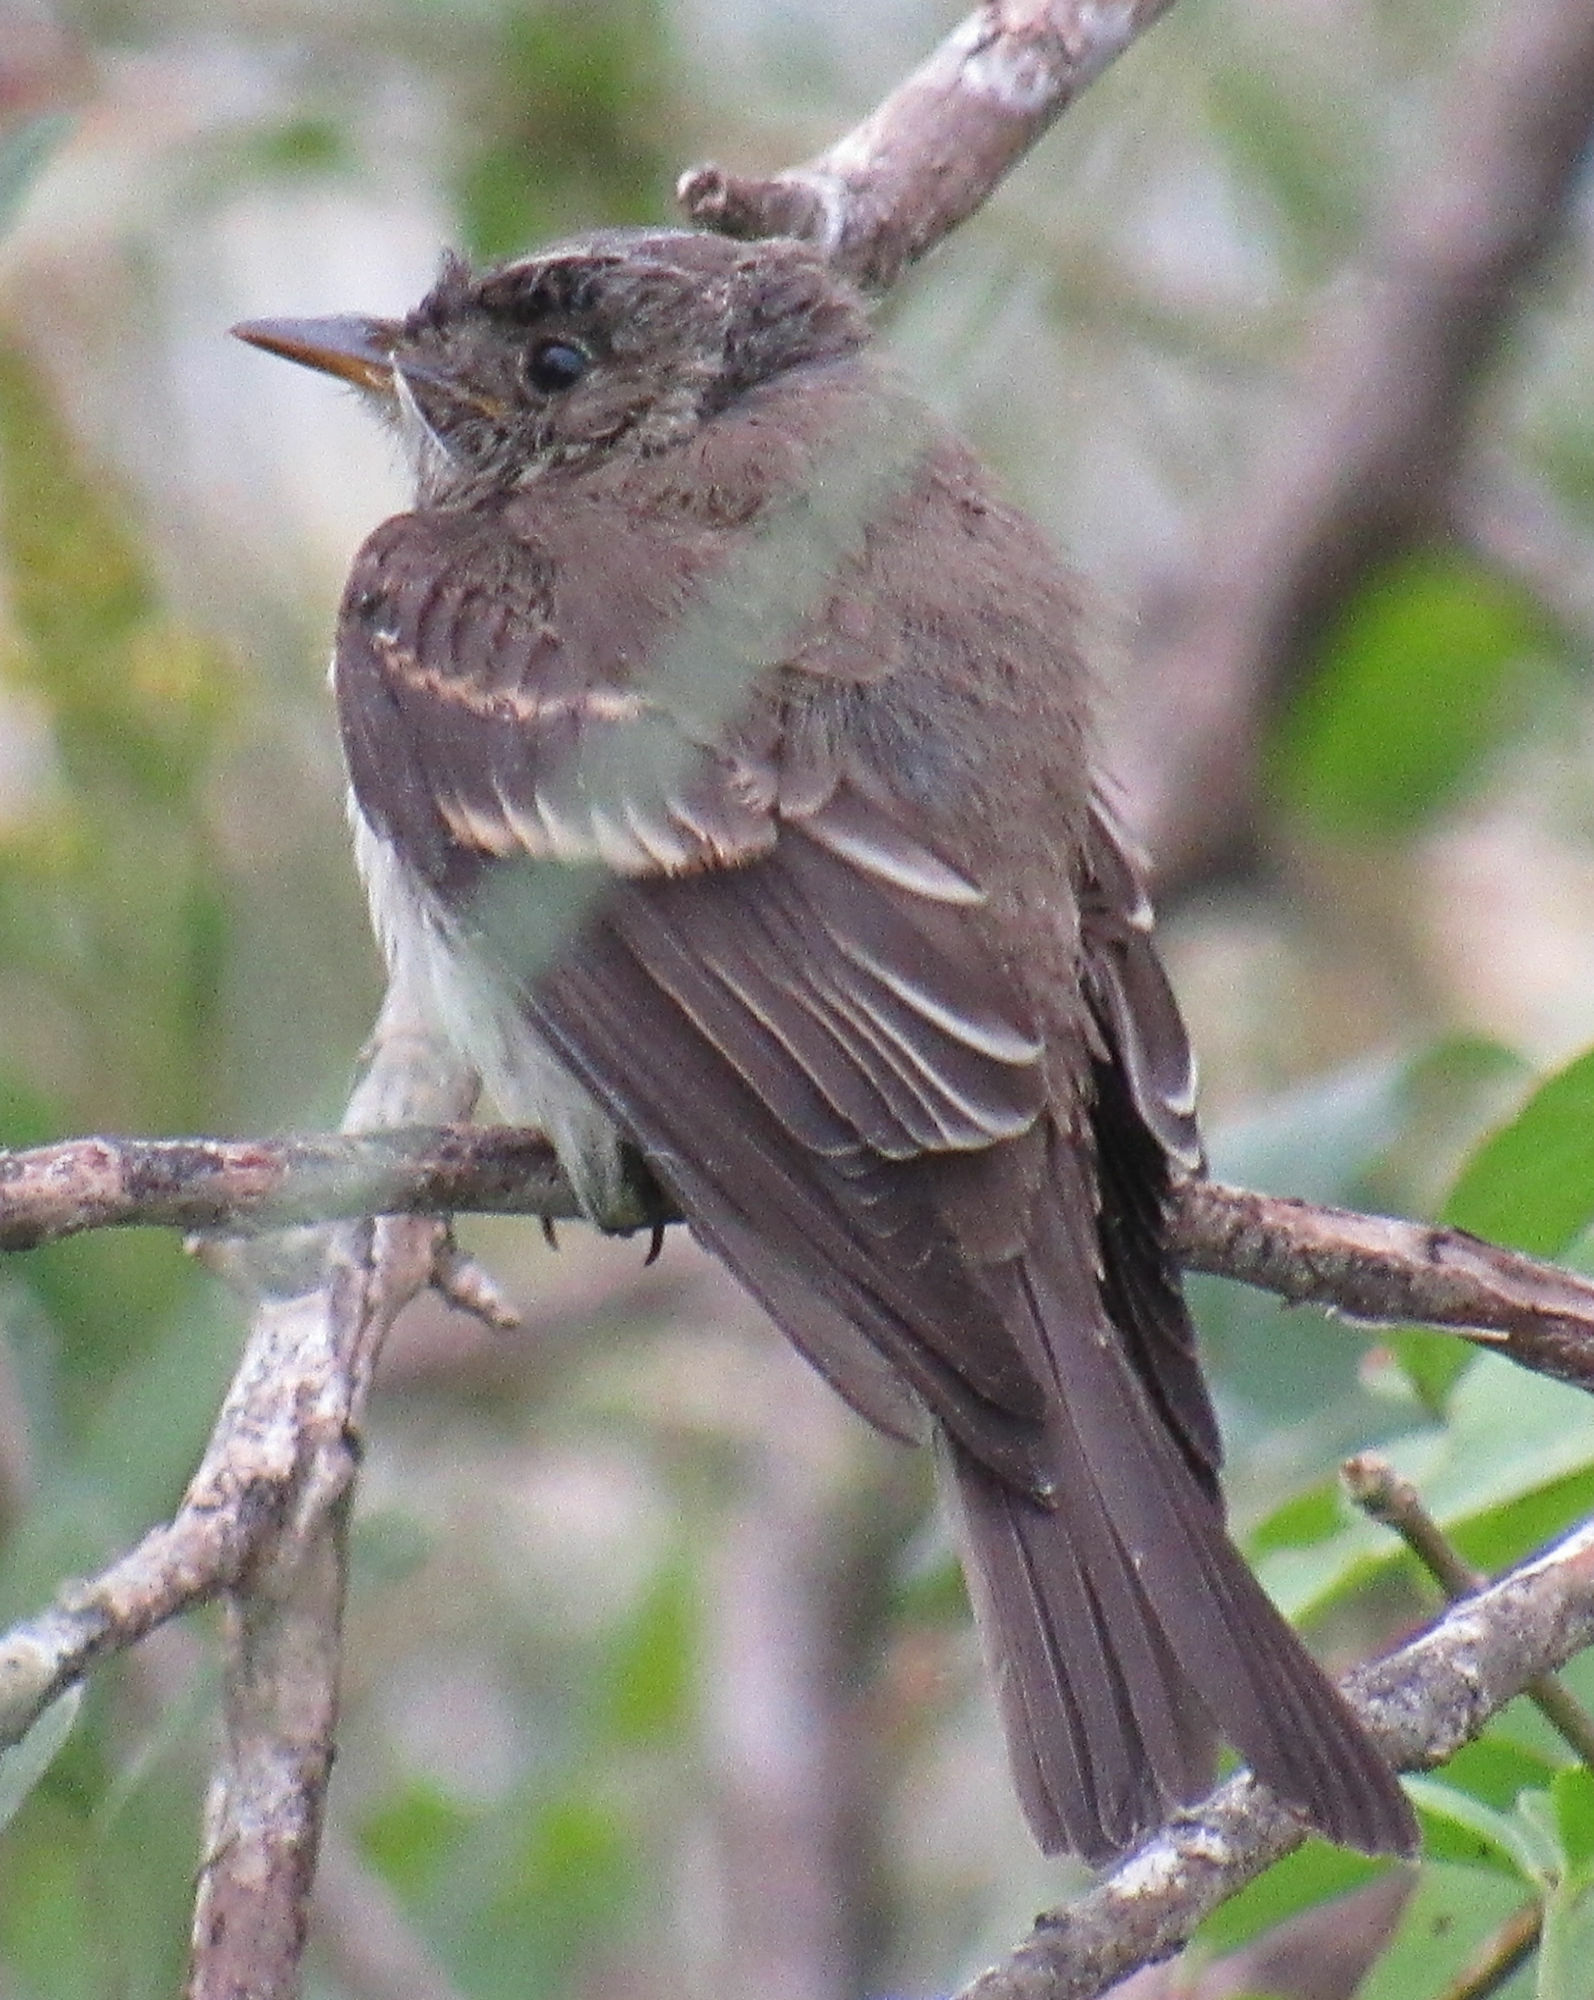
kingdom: Animalia
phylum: Chordata
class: Aves
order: Passeriformes
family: Tyrannidae
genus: Contopus
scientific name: Contopus virens
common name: Eastern wood-pewee
